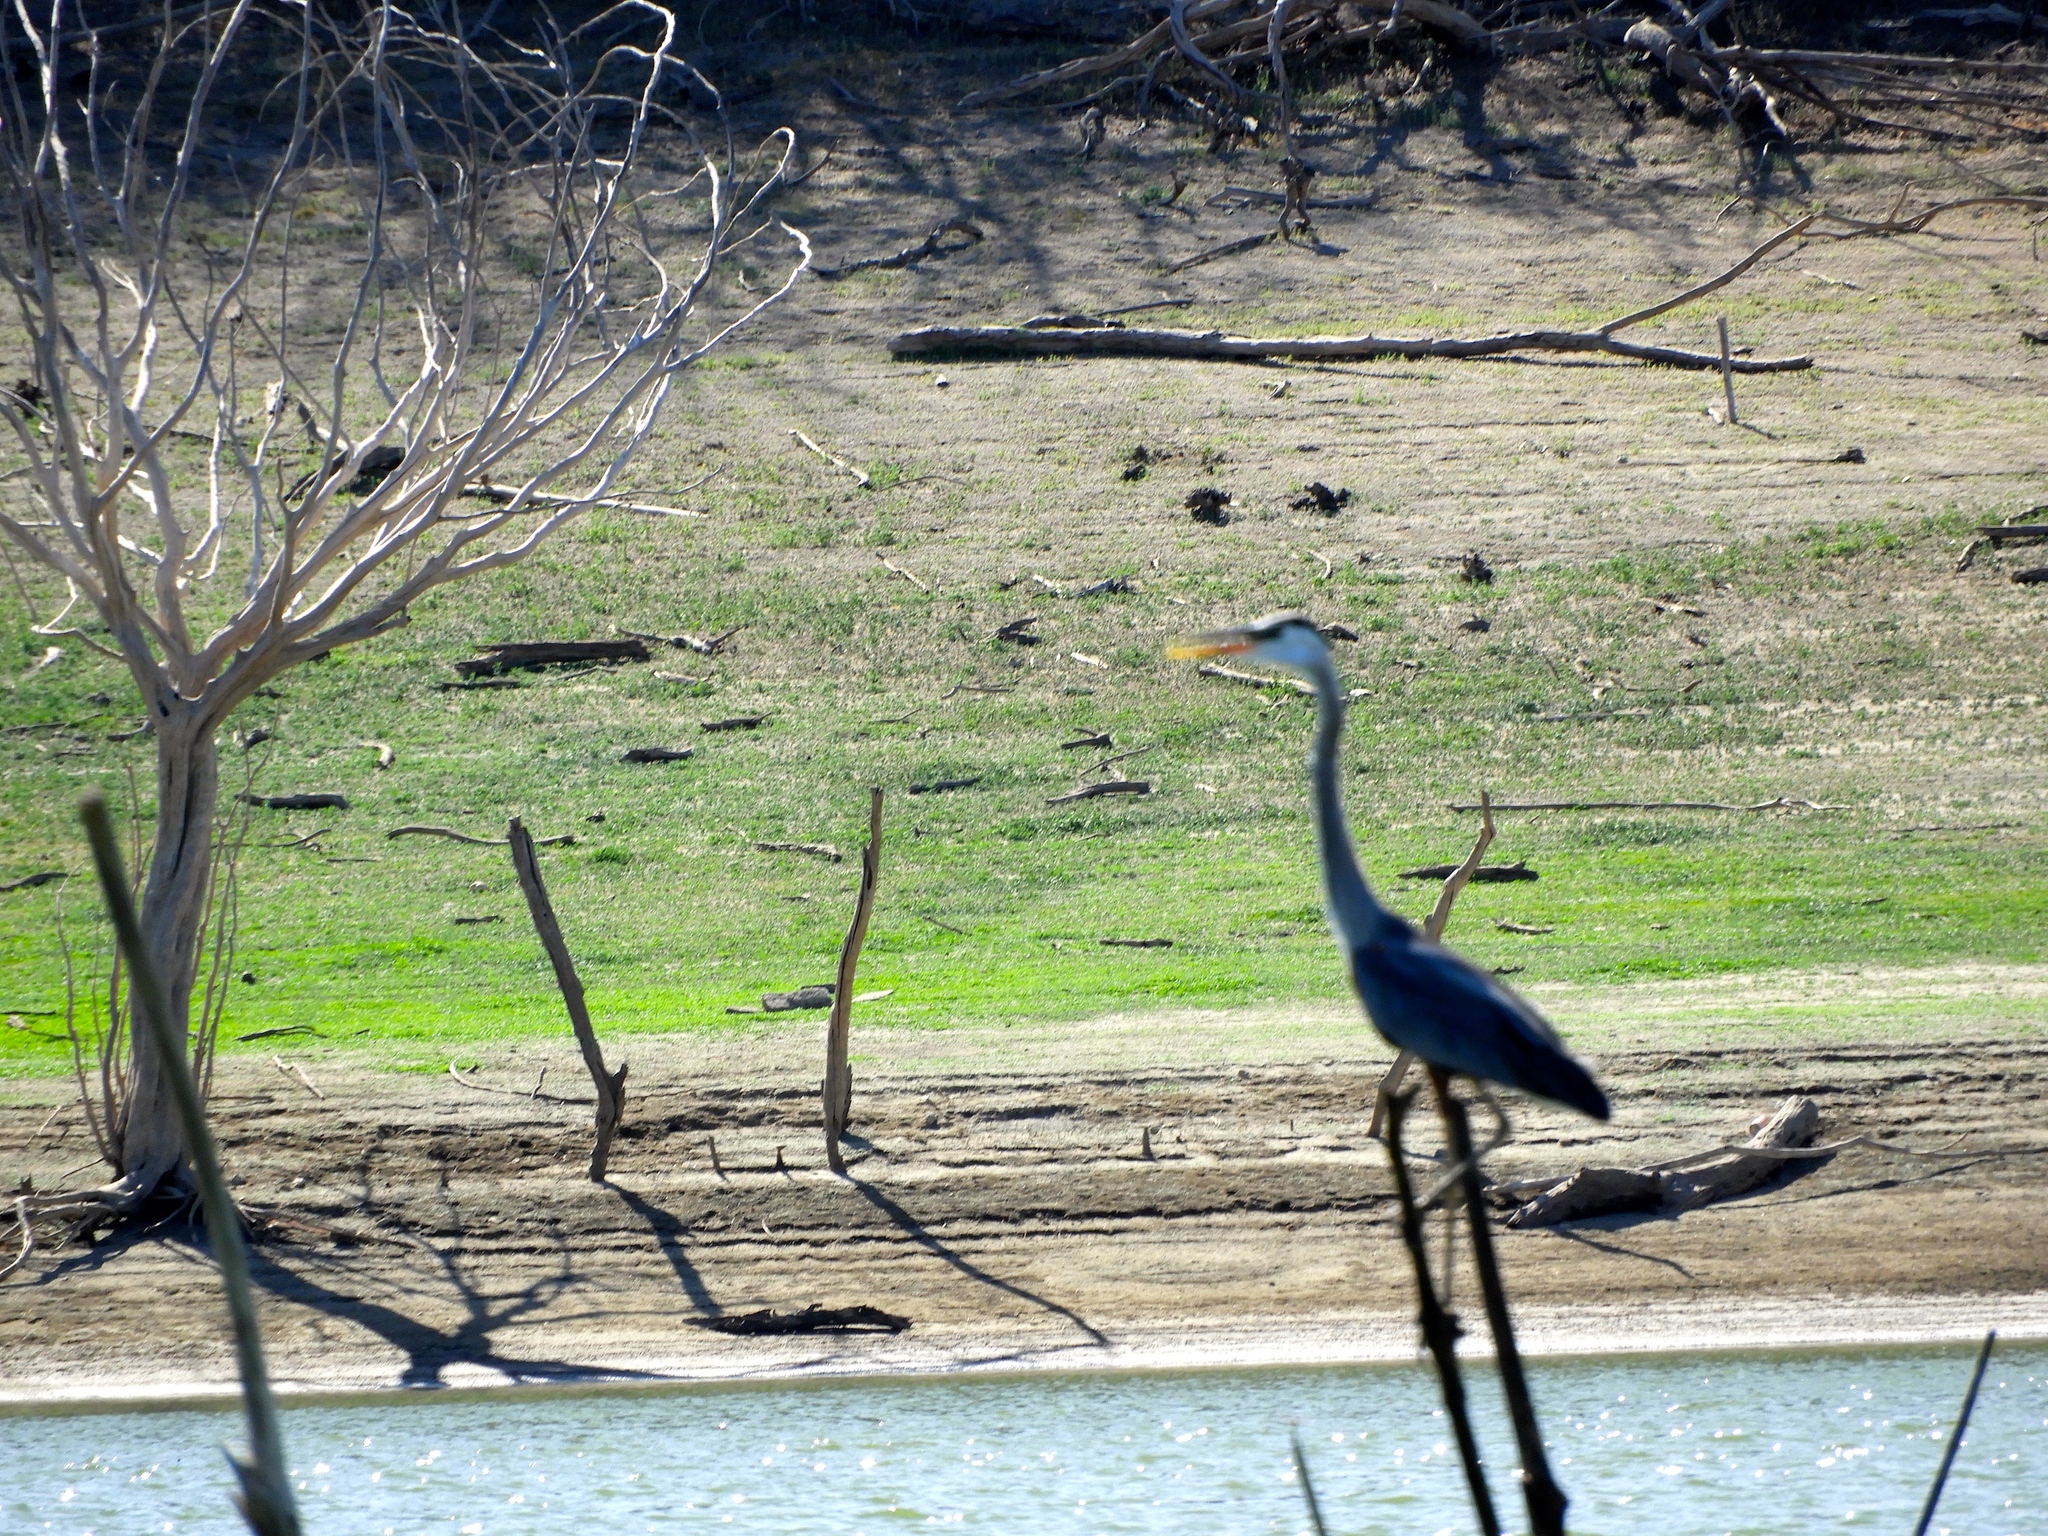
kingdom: Animalia
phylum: Chordata
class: Aves
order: Pelecaniformes
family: Ardeidae
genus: Ardea
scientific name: Ardea herodias
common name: Great blue heron
